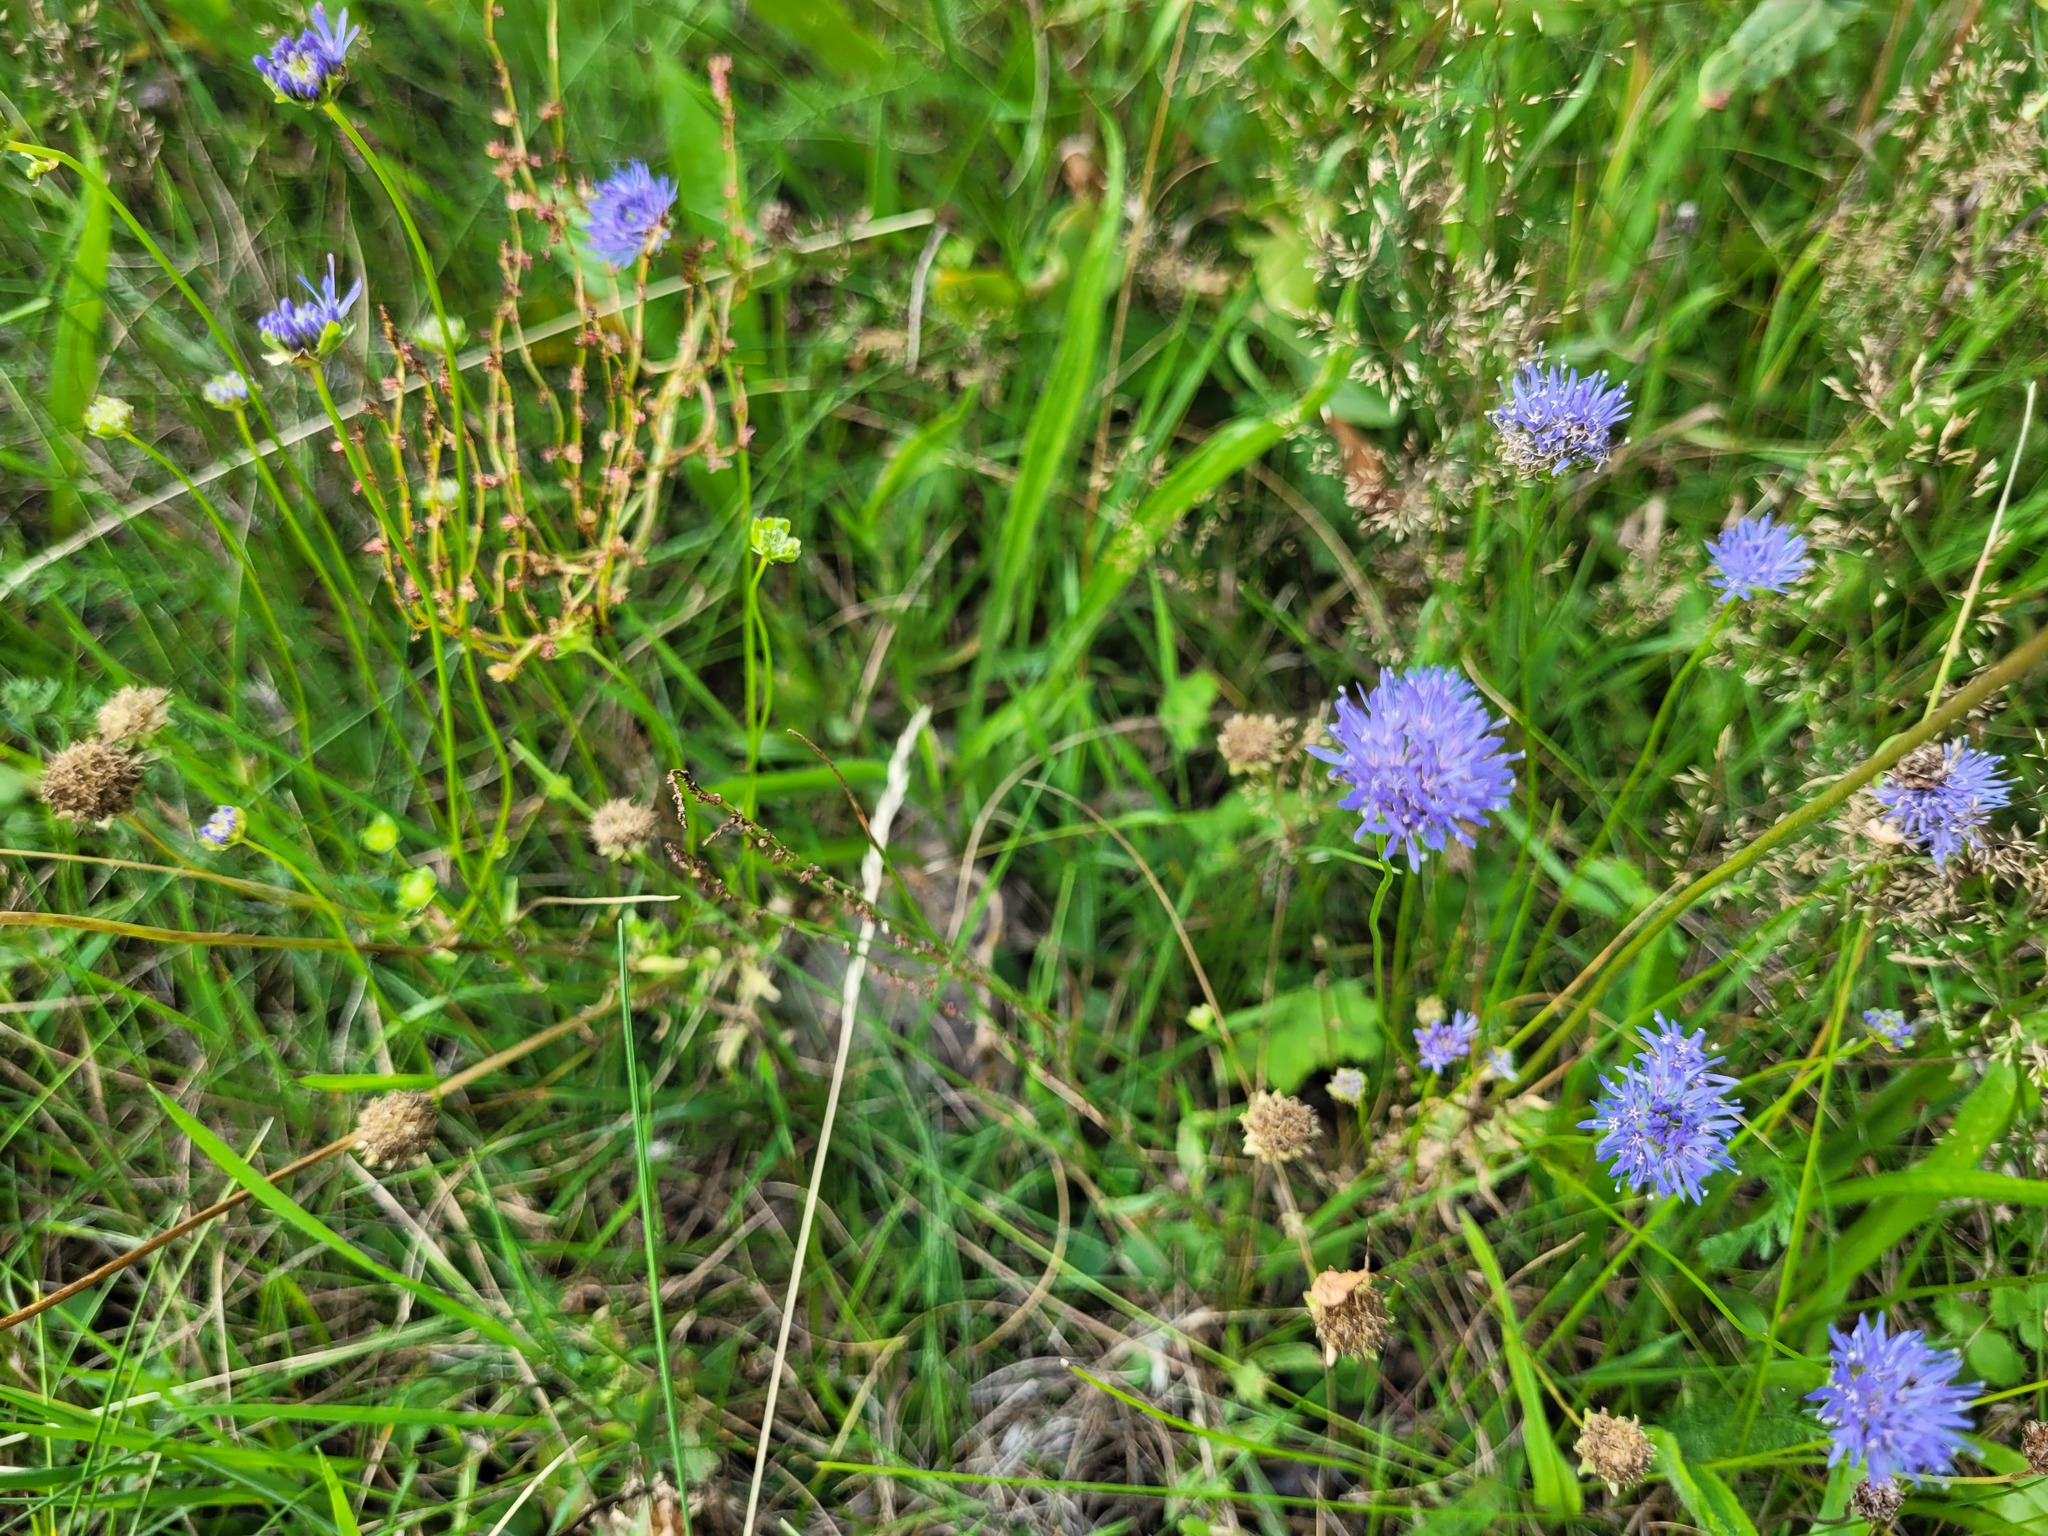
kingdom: Plantae
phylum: Tracheophyta
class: Magnoliopsida
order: Asterales
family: Campanulaceae
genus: Jasione
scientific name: Jasione montana
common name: Sheep's-bit
